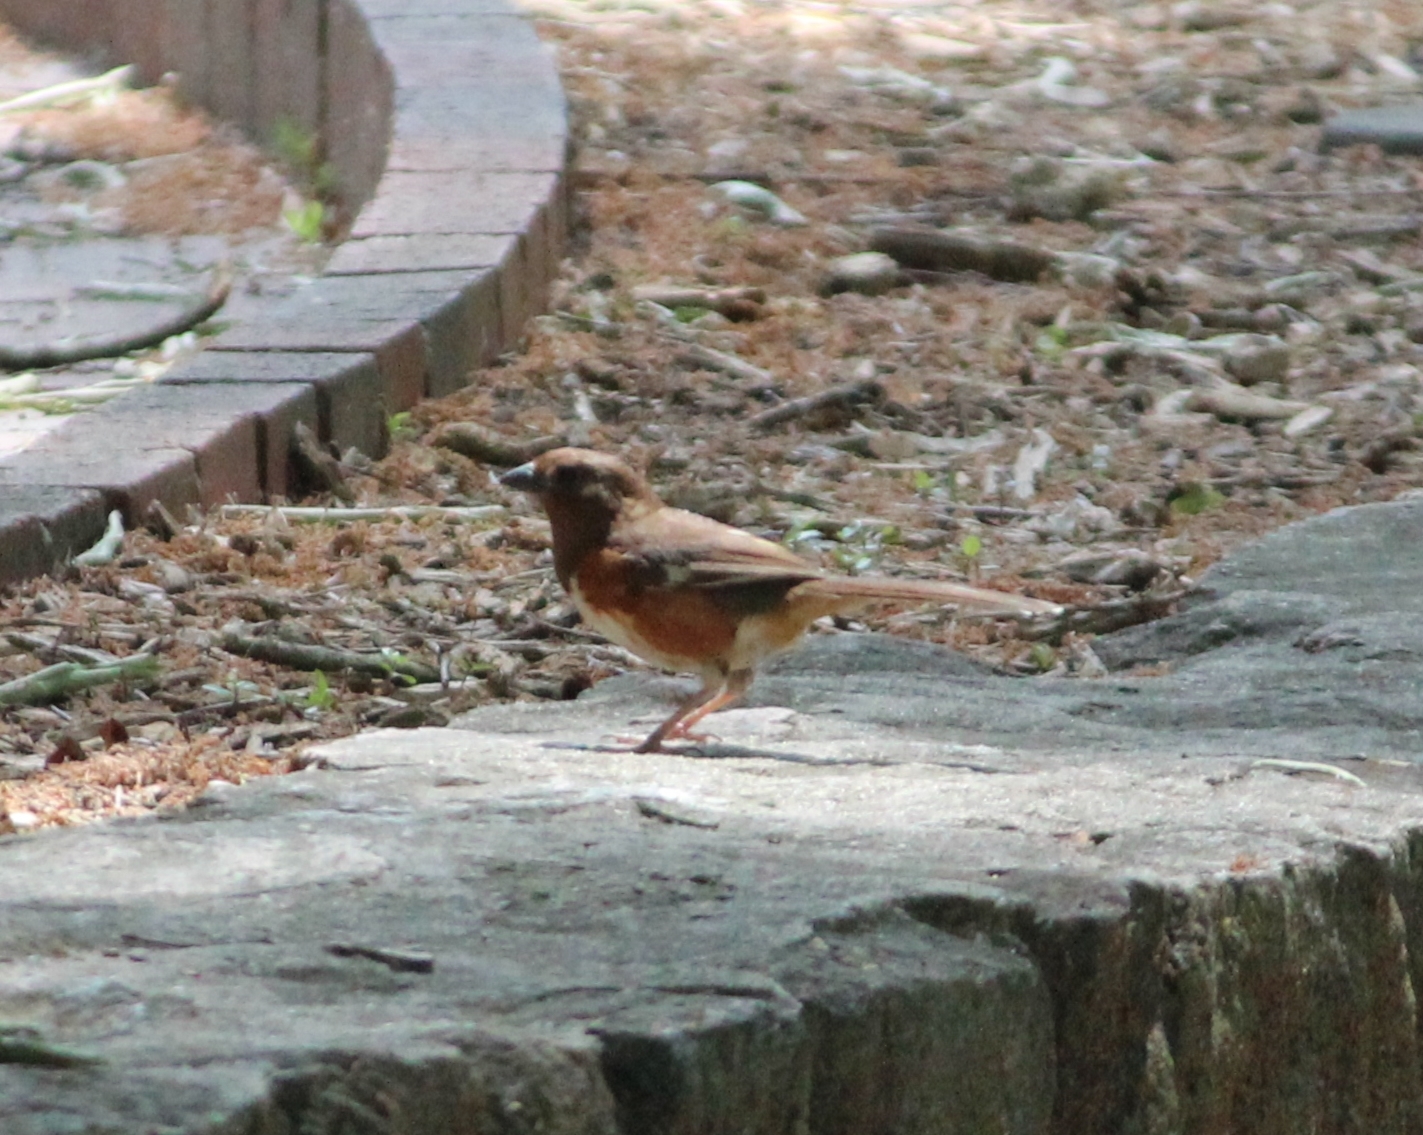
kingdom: Animalia
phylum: Chordata
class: Aves
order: Passeriformes
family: Passerellidae
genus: Pipilo
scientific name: Pipilo erythrophthalmus
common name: Eastern towhee
